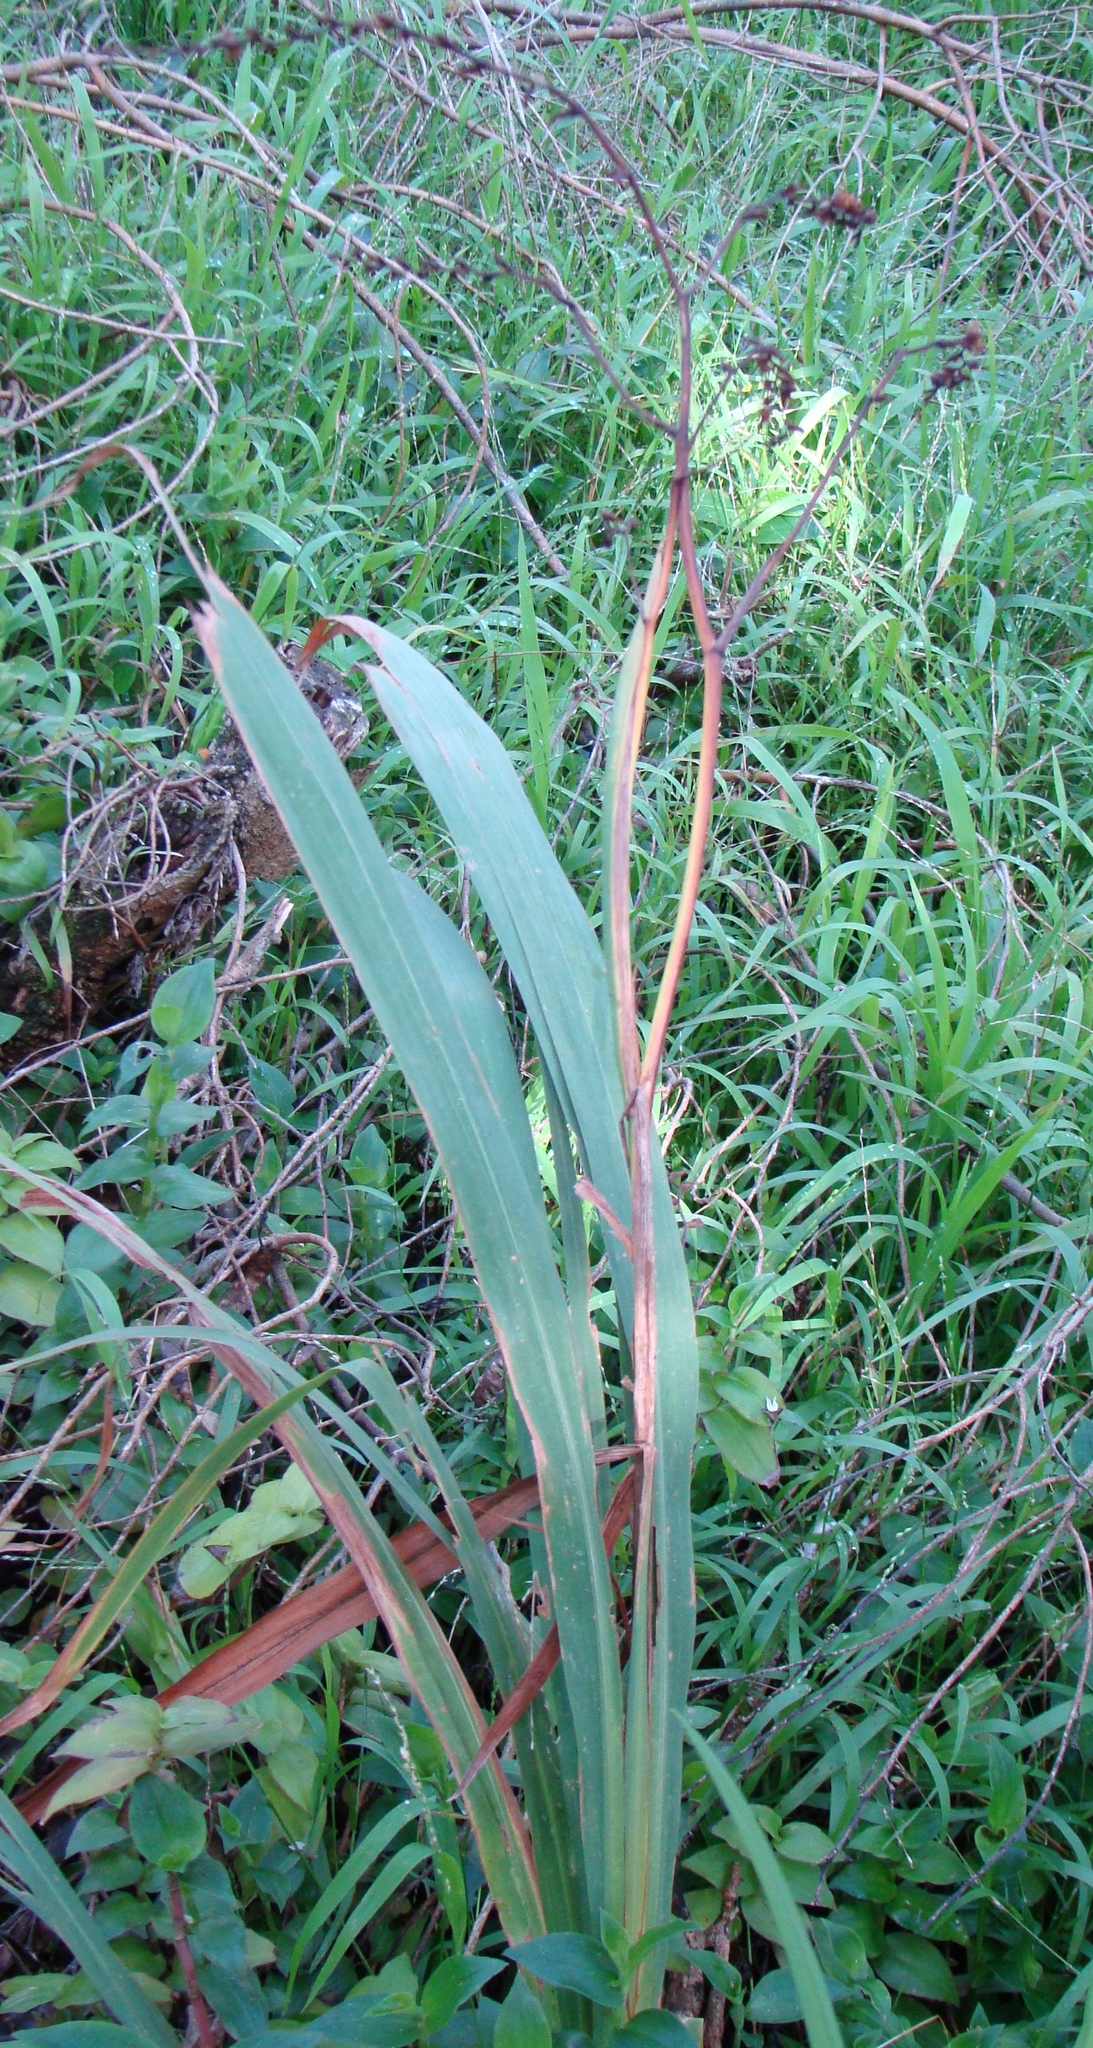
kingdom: Plantae
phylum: Tracheophyta
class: Liliopsida
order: Asparagales
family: Iridaceae
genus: Crocosmia
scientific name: Crocosmia crocosmiiflora
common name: Montbretia
